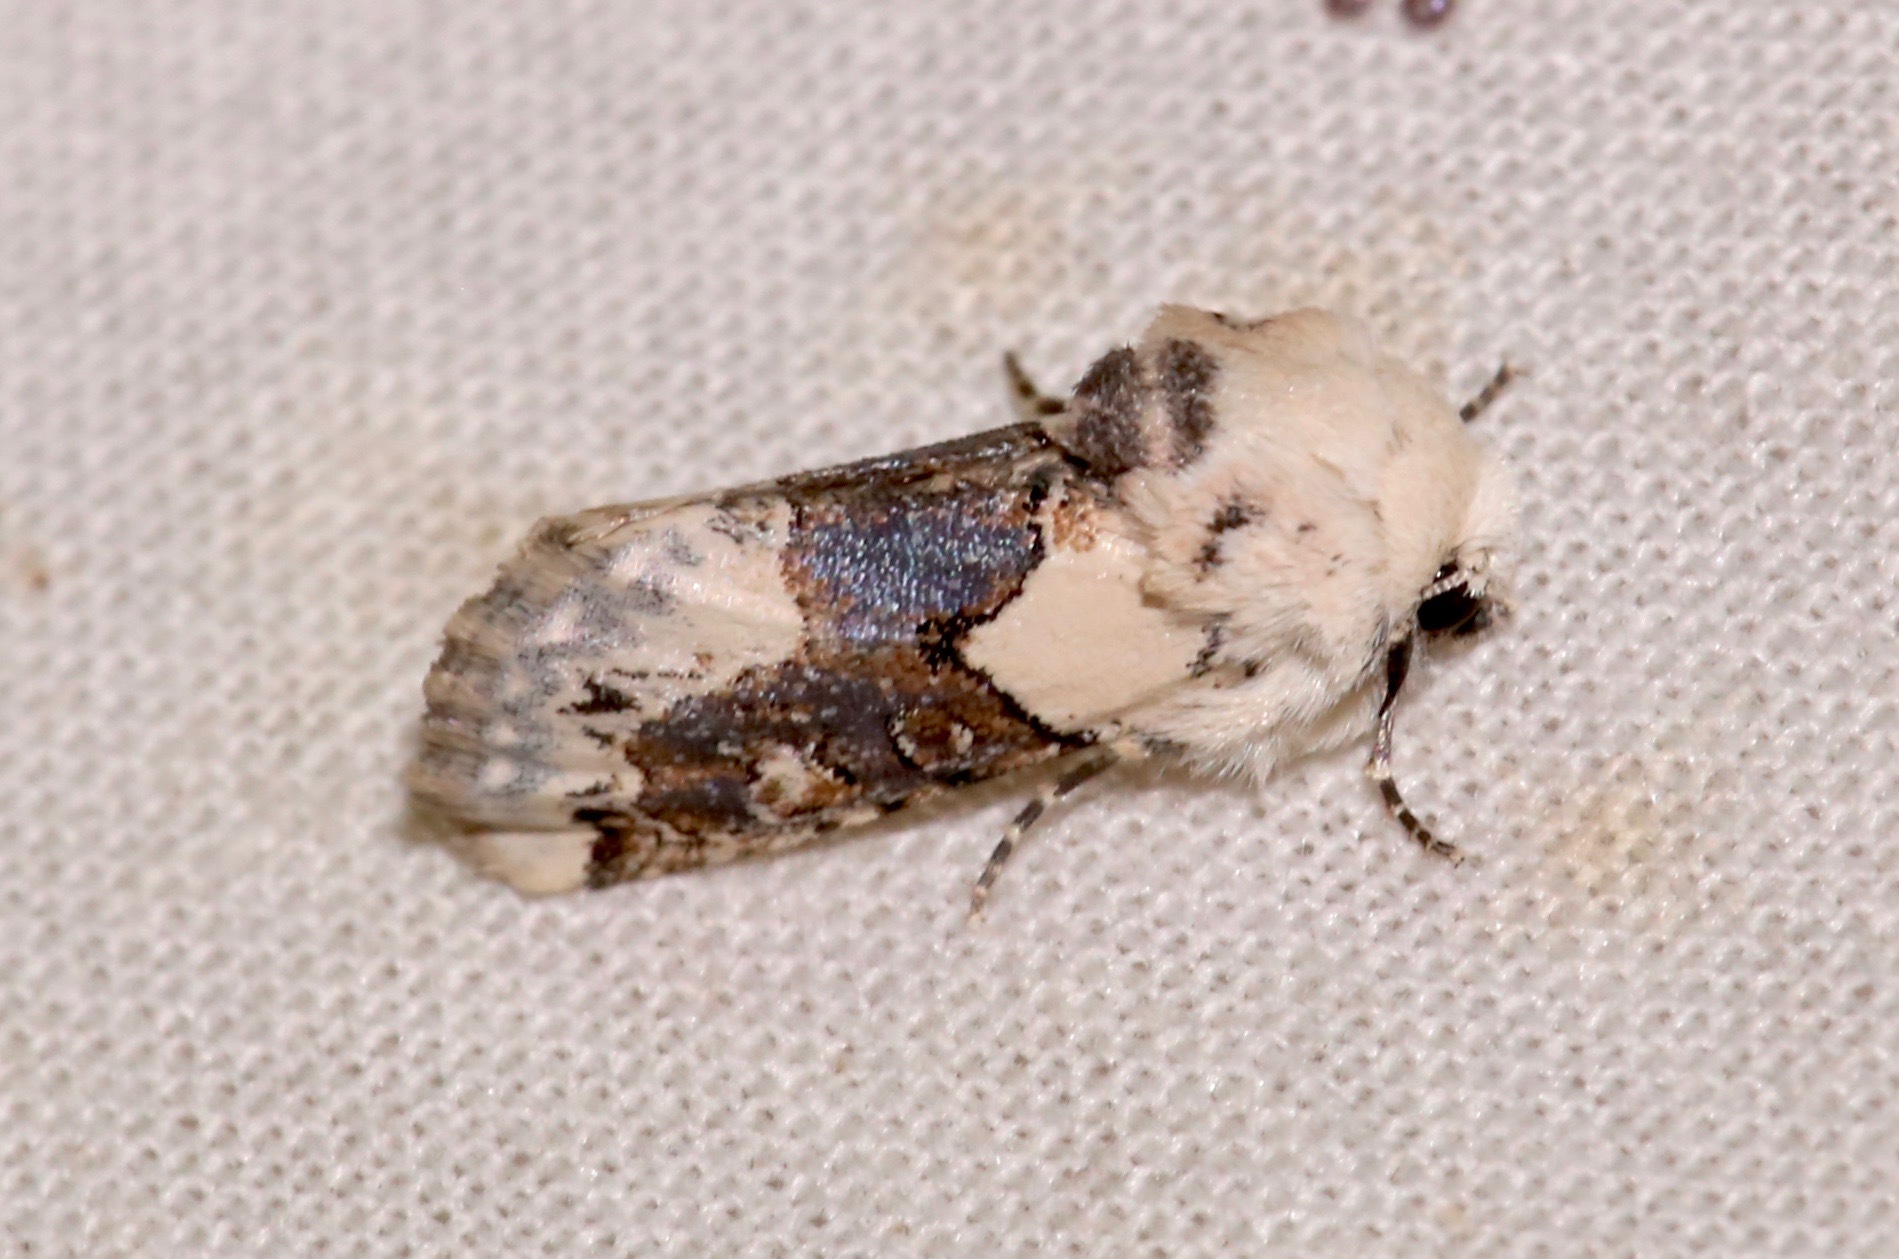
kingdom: Animalia
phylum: Arthropoda
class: Insecta
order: Lepidoptera
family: Noctuidae
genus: Triocnemis
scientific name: Triocnemis saporis
